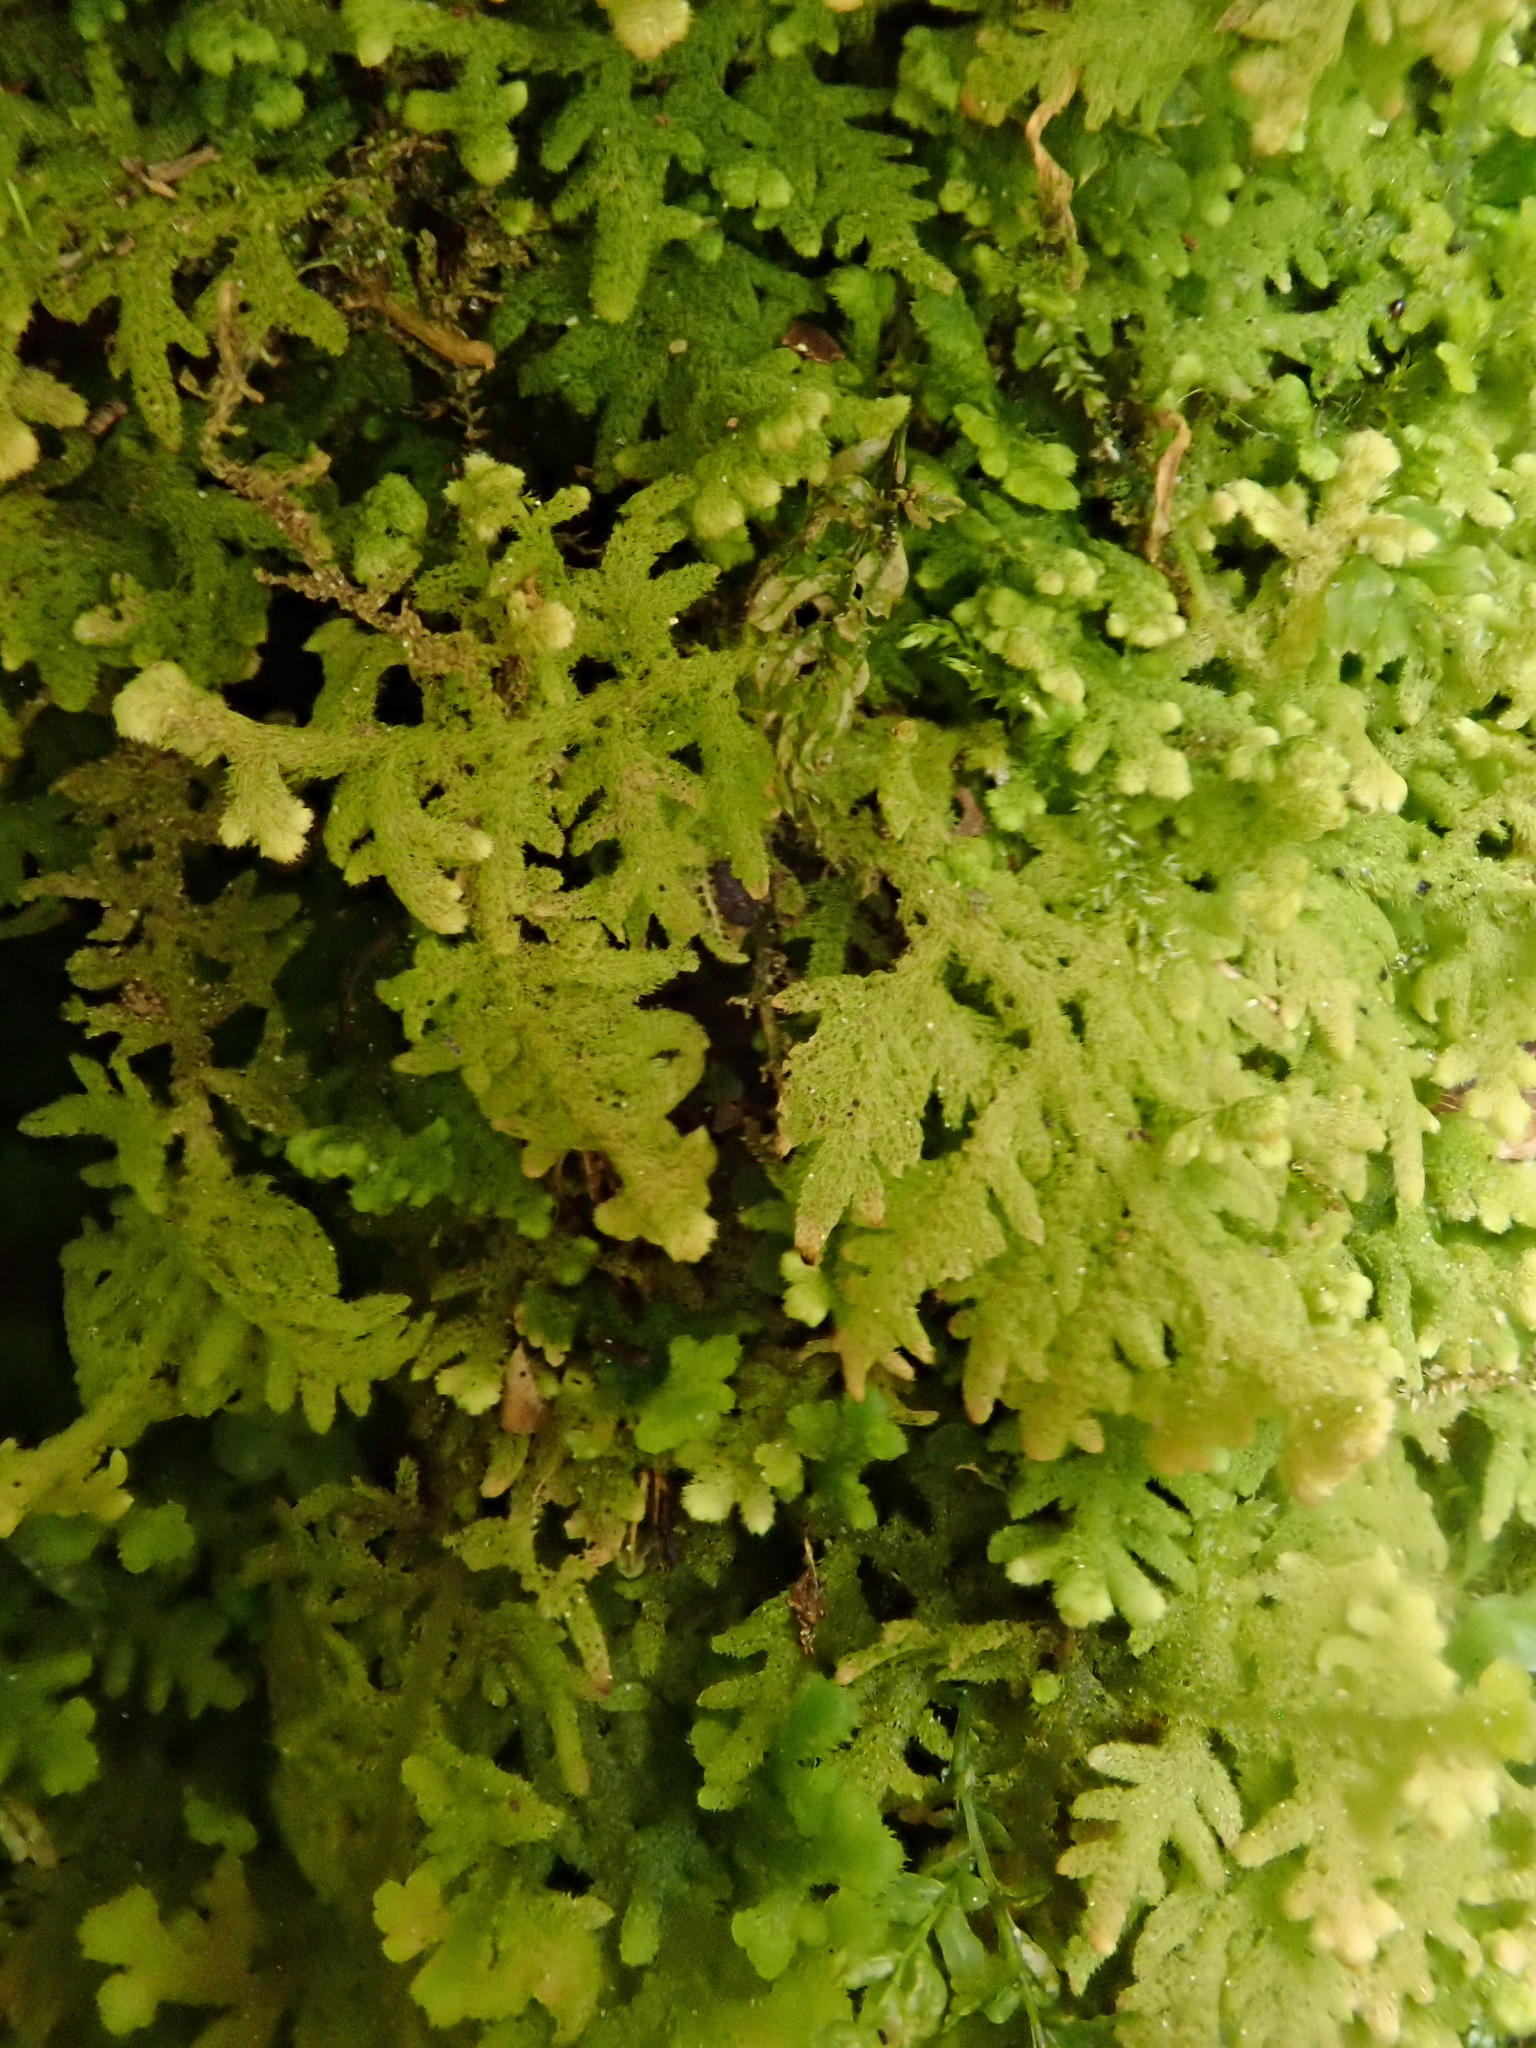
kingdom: Plantae
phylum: Marchantiophyta
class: Jungermanniopsida
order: Jungermanniales
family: Trichocoleaceae
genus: Trichocolea
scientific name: Trichocolea tomentella
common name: Woolly liverwort
